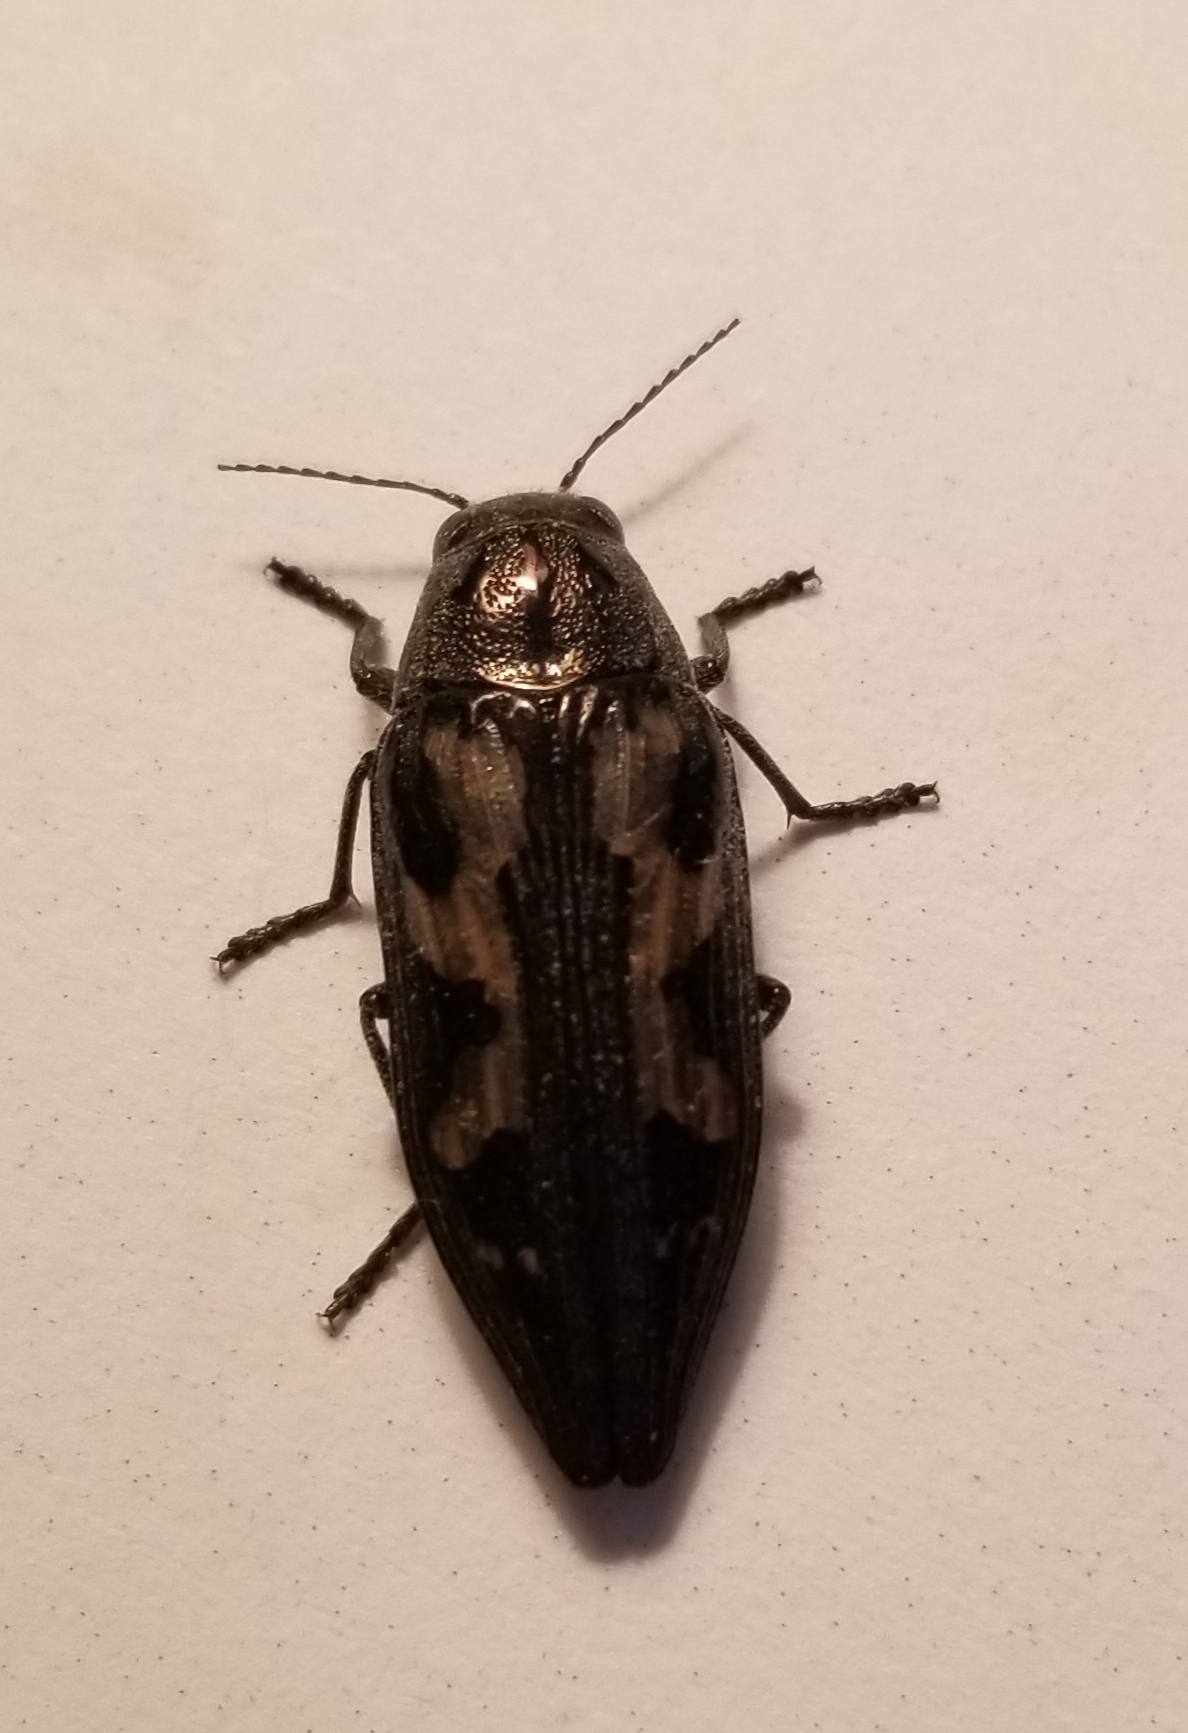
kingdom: Animalia
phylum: Arthropoda
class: Insecta
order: Coleoptera
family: Buprestidae
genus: Buprestis
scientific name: Buprestis laeviventris
